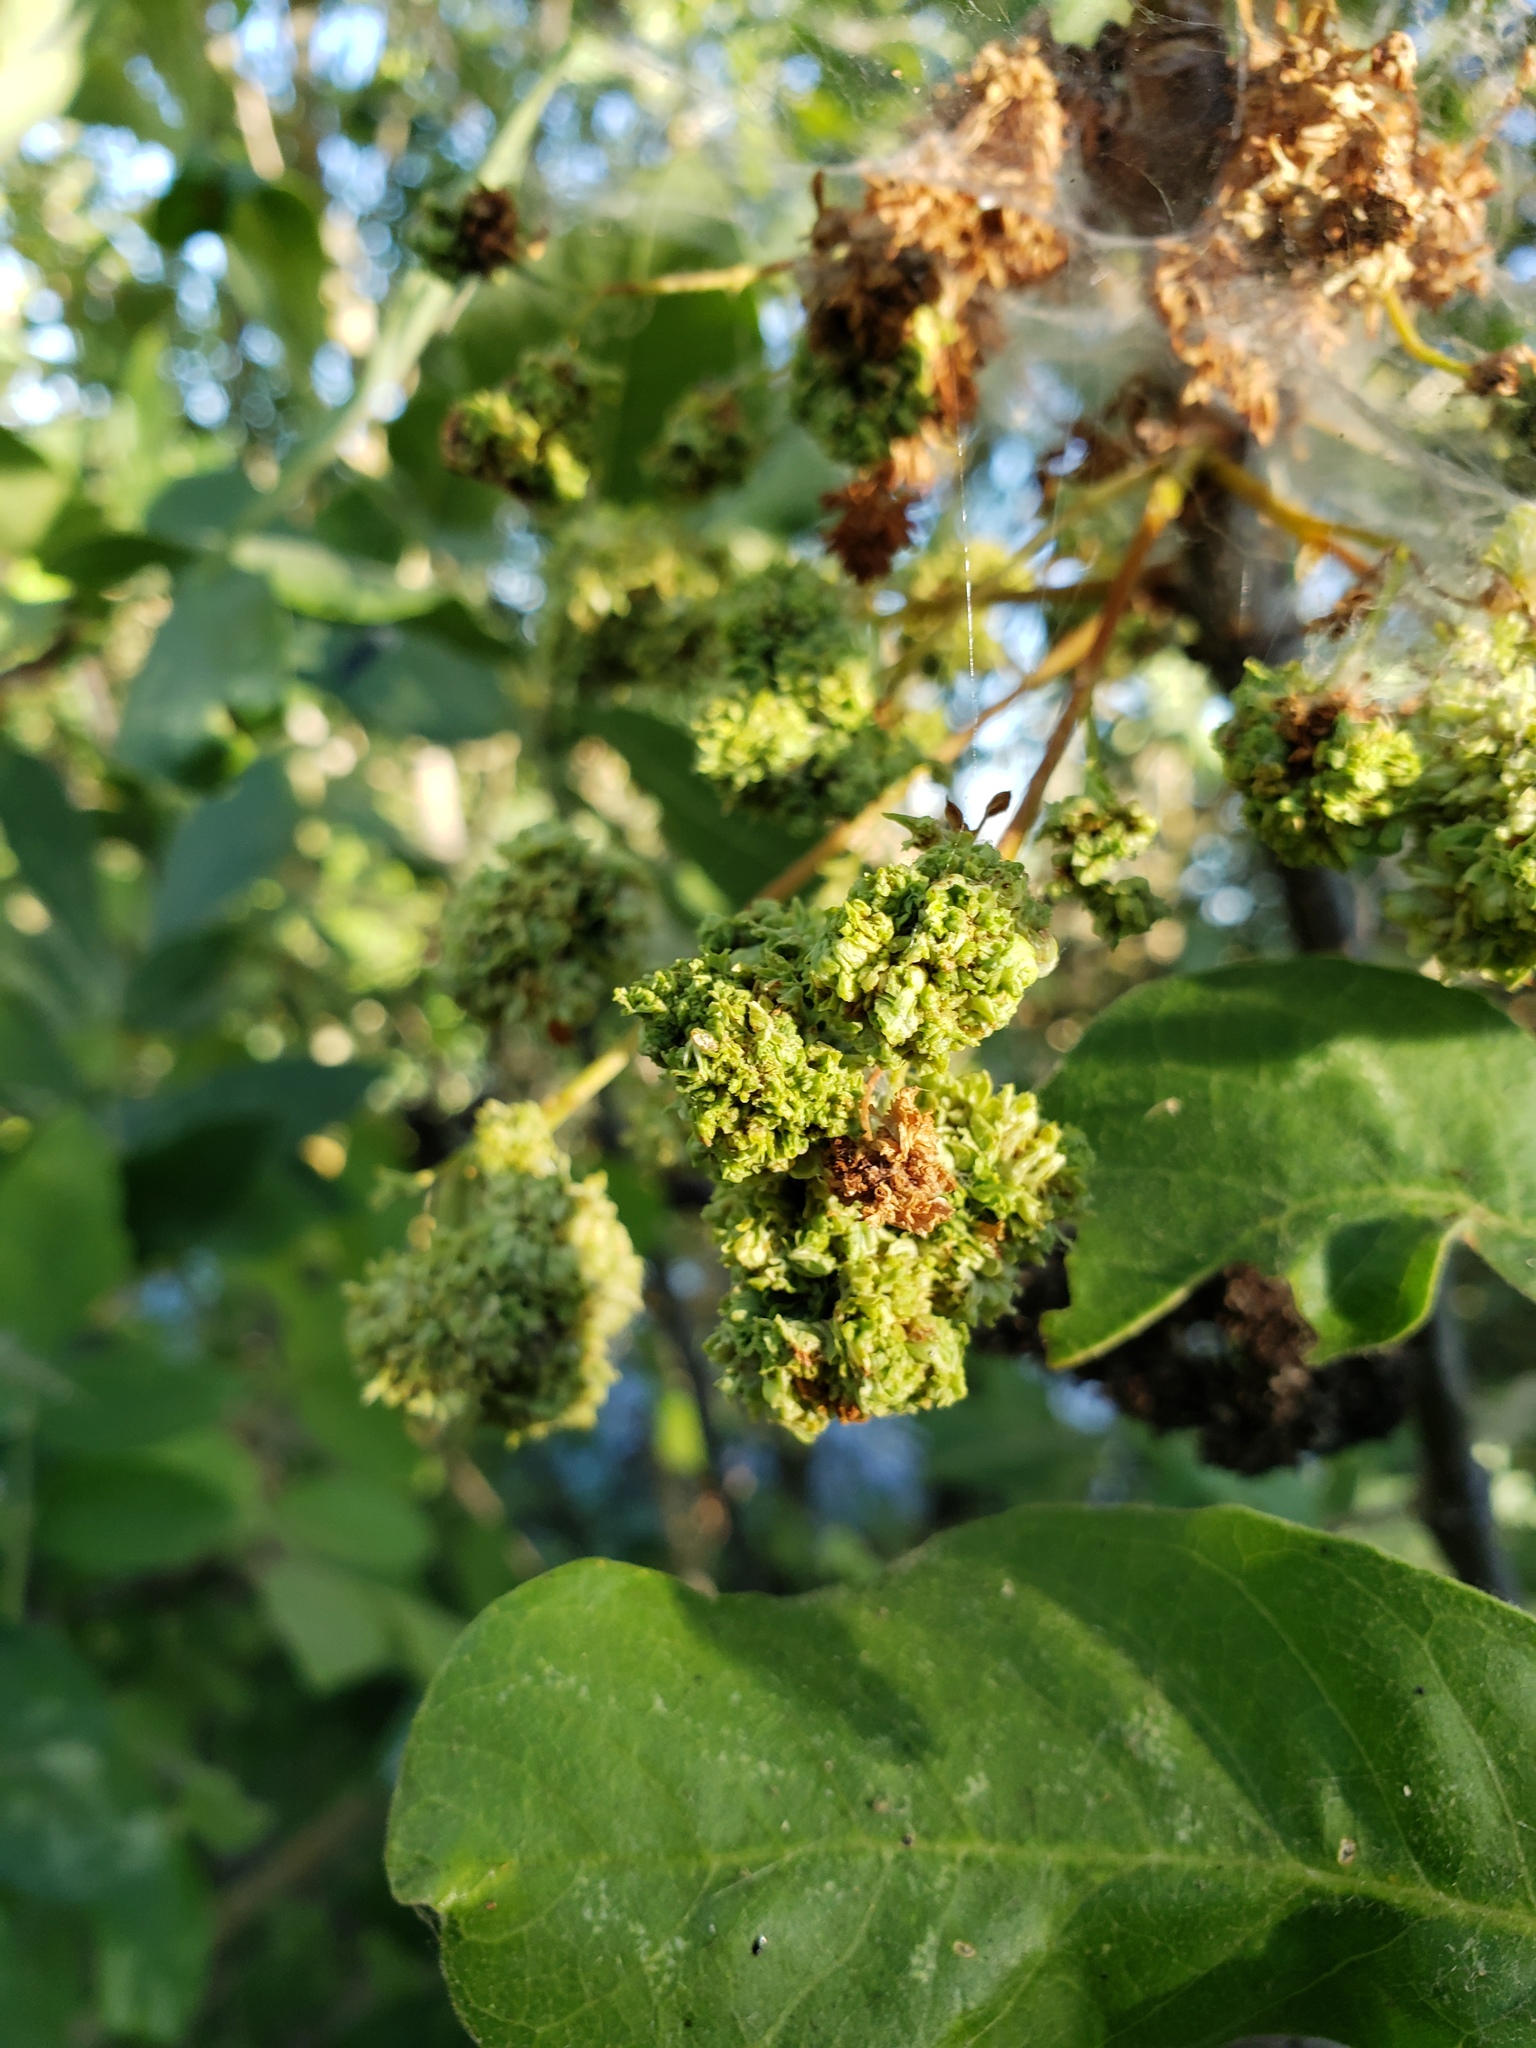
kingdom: Animalia
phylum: Arthropoda
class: Arachnida
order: Trombidiformes
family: Eriophyidae
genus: Aceria
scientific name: Aceria fraxiniflora
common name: Ash flower gall mite
